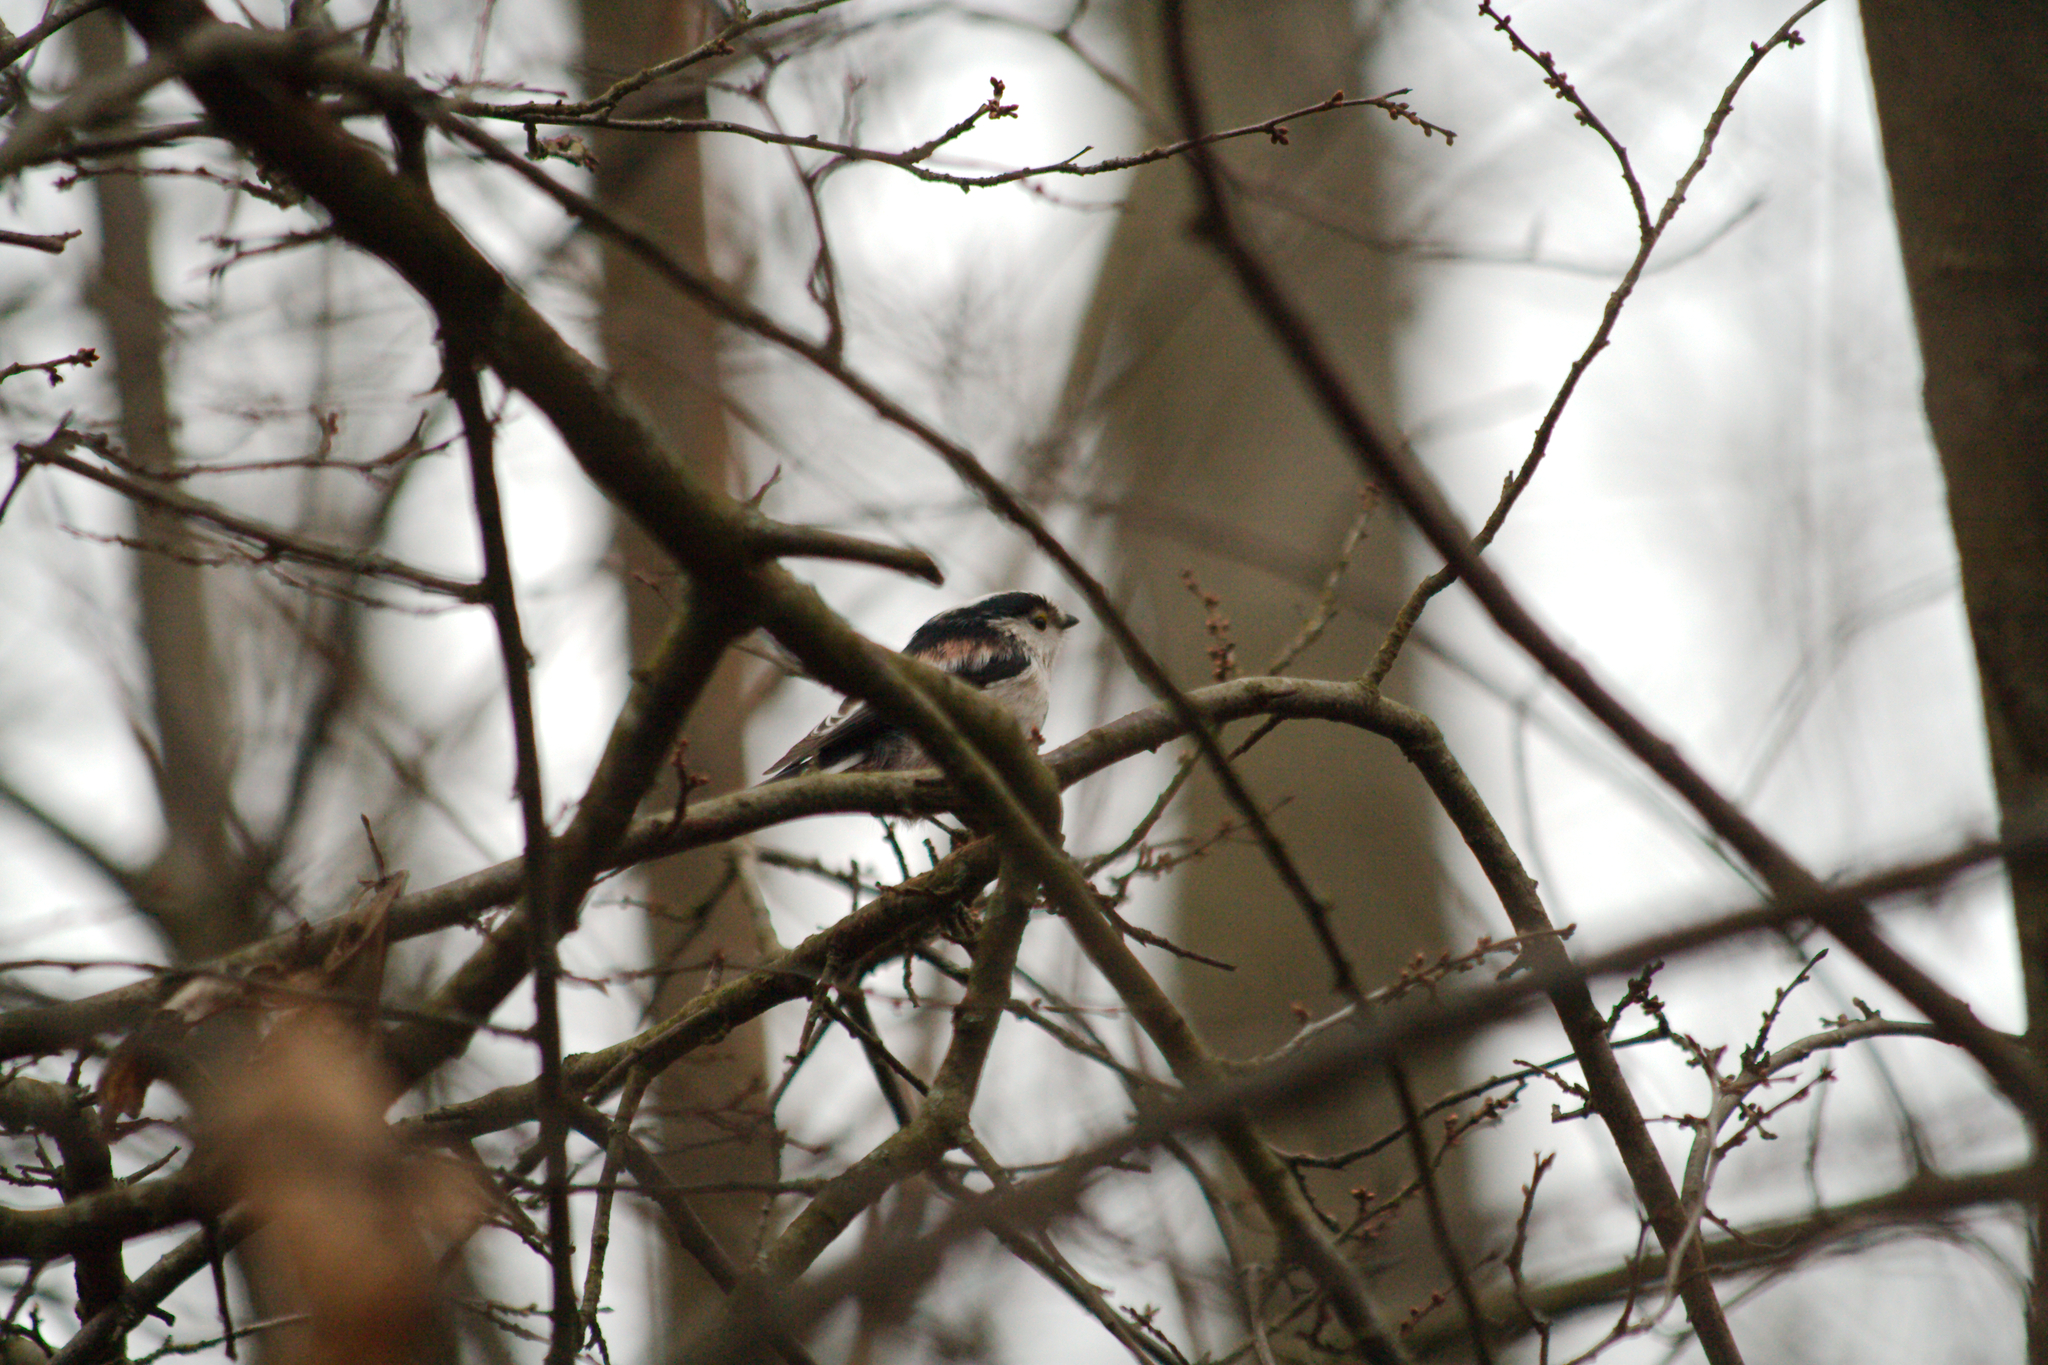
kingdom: Animalia
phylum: Chordata
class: Aves
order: Passeriformes
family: Aegithalidae
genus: Aegithalos
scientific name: Aegithalos caudatus
